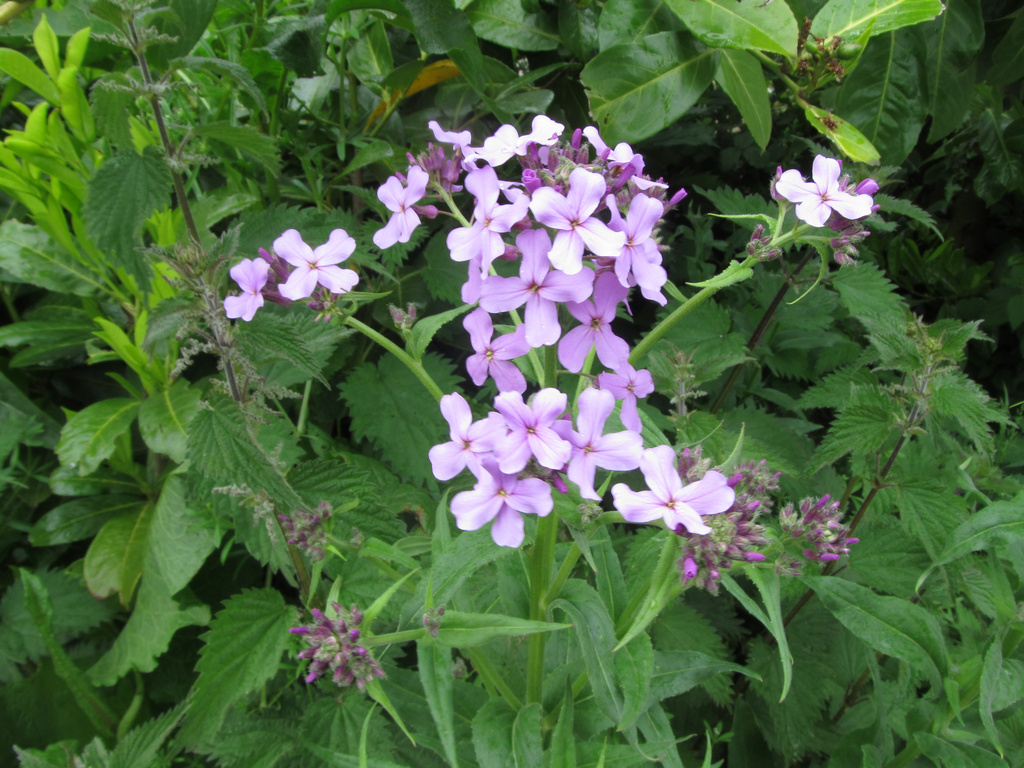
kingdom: Plantae
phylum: Tracheophyta
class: Magnoliopsida
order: Brassicales
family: Brassicaceae
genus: Hesperis
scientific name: Hesperis matronalis
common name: Dame's-violet
